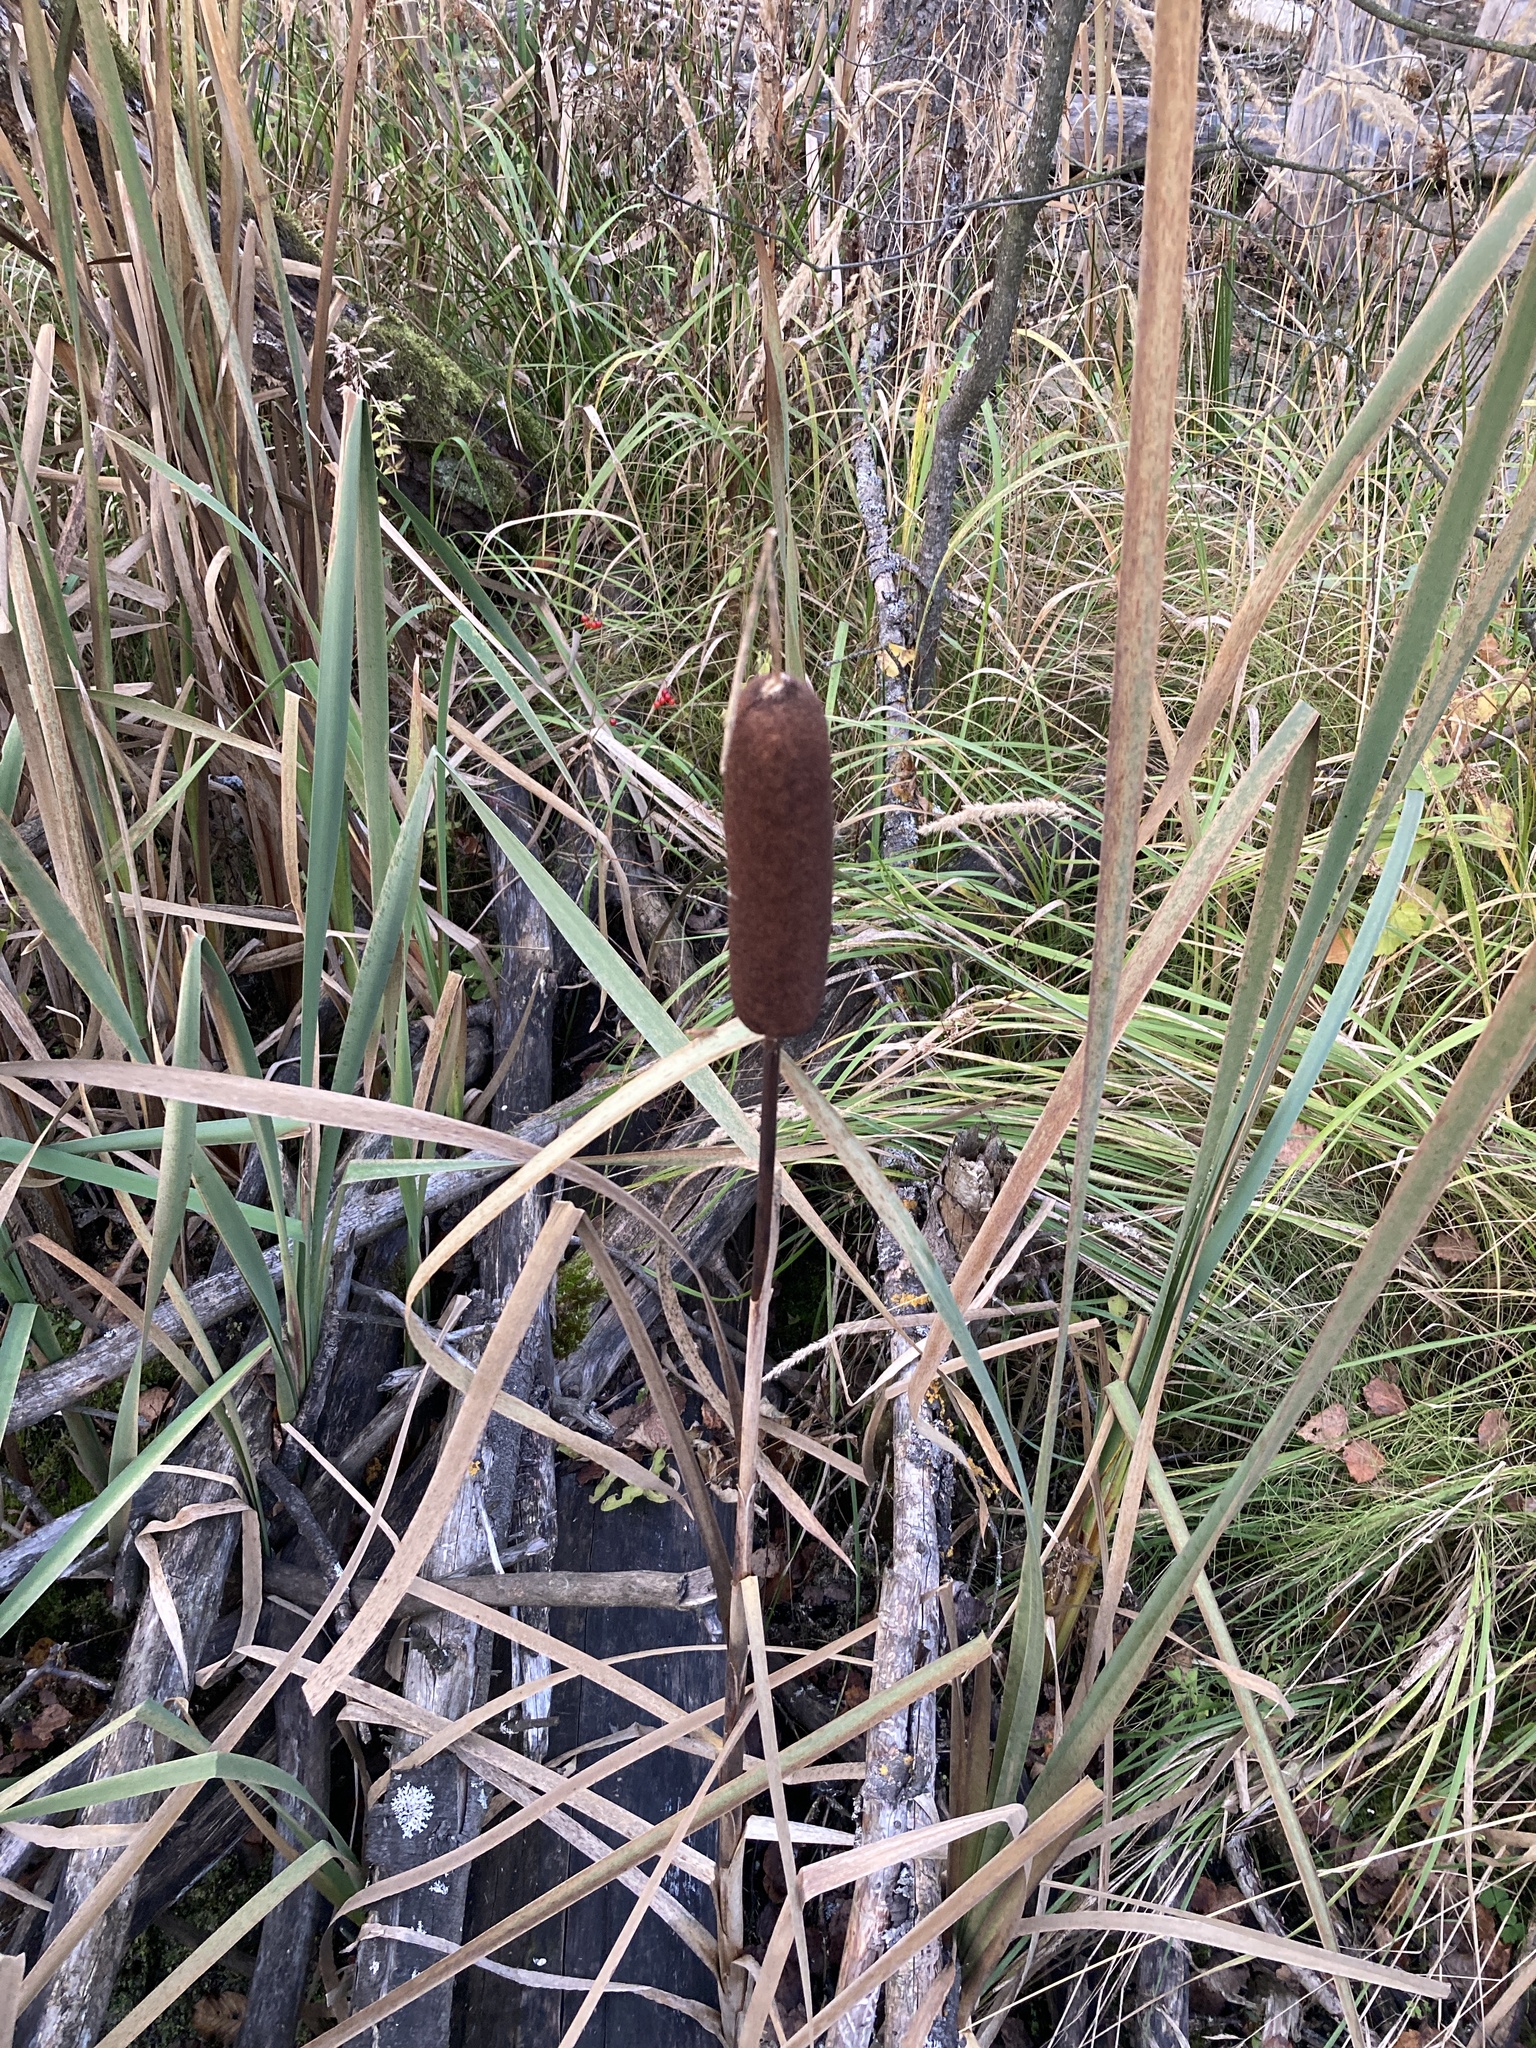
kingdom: Plantae
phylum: Tracheophyta
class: Liliopsida
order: Poales
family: Typhaceae
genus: Typha
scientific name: Typha angustifolia
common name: Lesser bulrush
